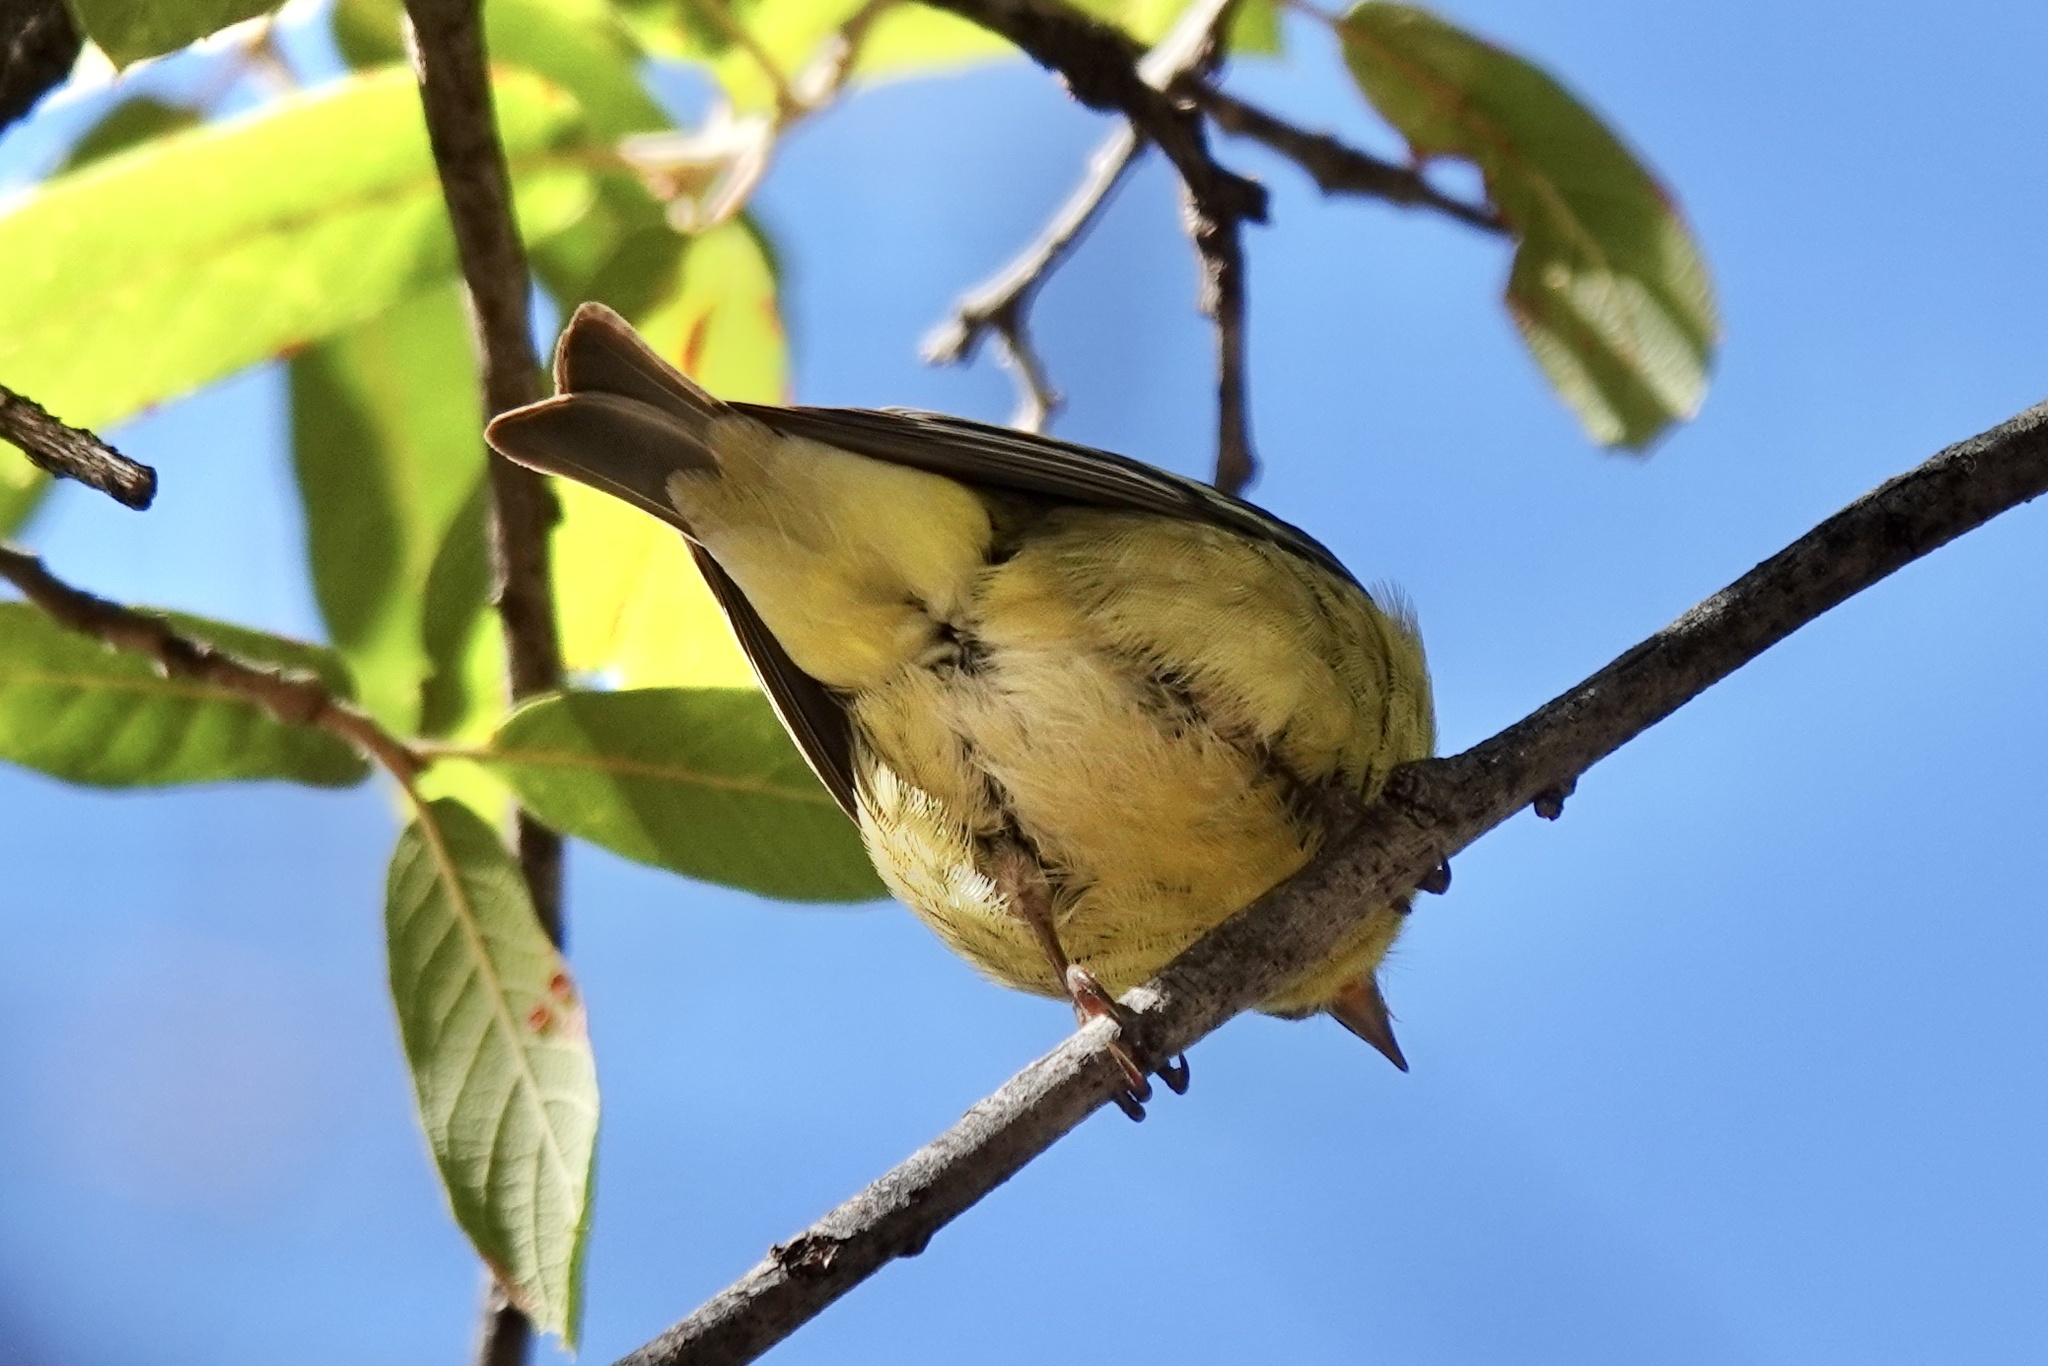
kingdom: Animalia
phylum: Chordata
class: Aves
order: Passeriformes
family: Fringillidae
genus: Spinus
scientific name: Spinus psaltria
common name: Lesser goldfinch
